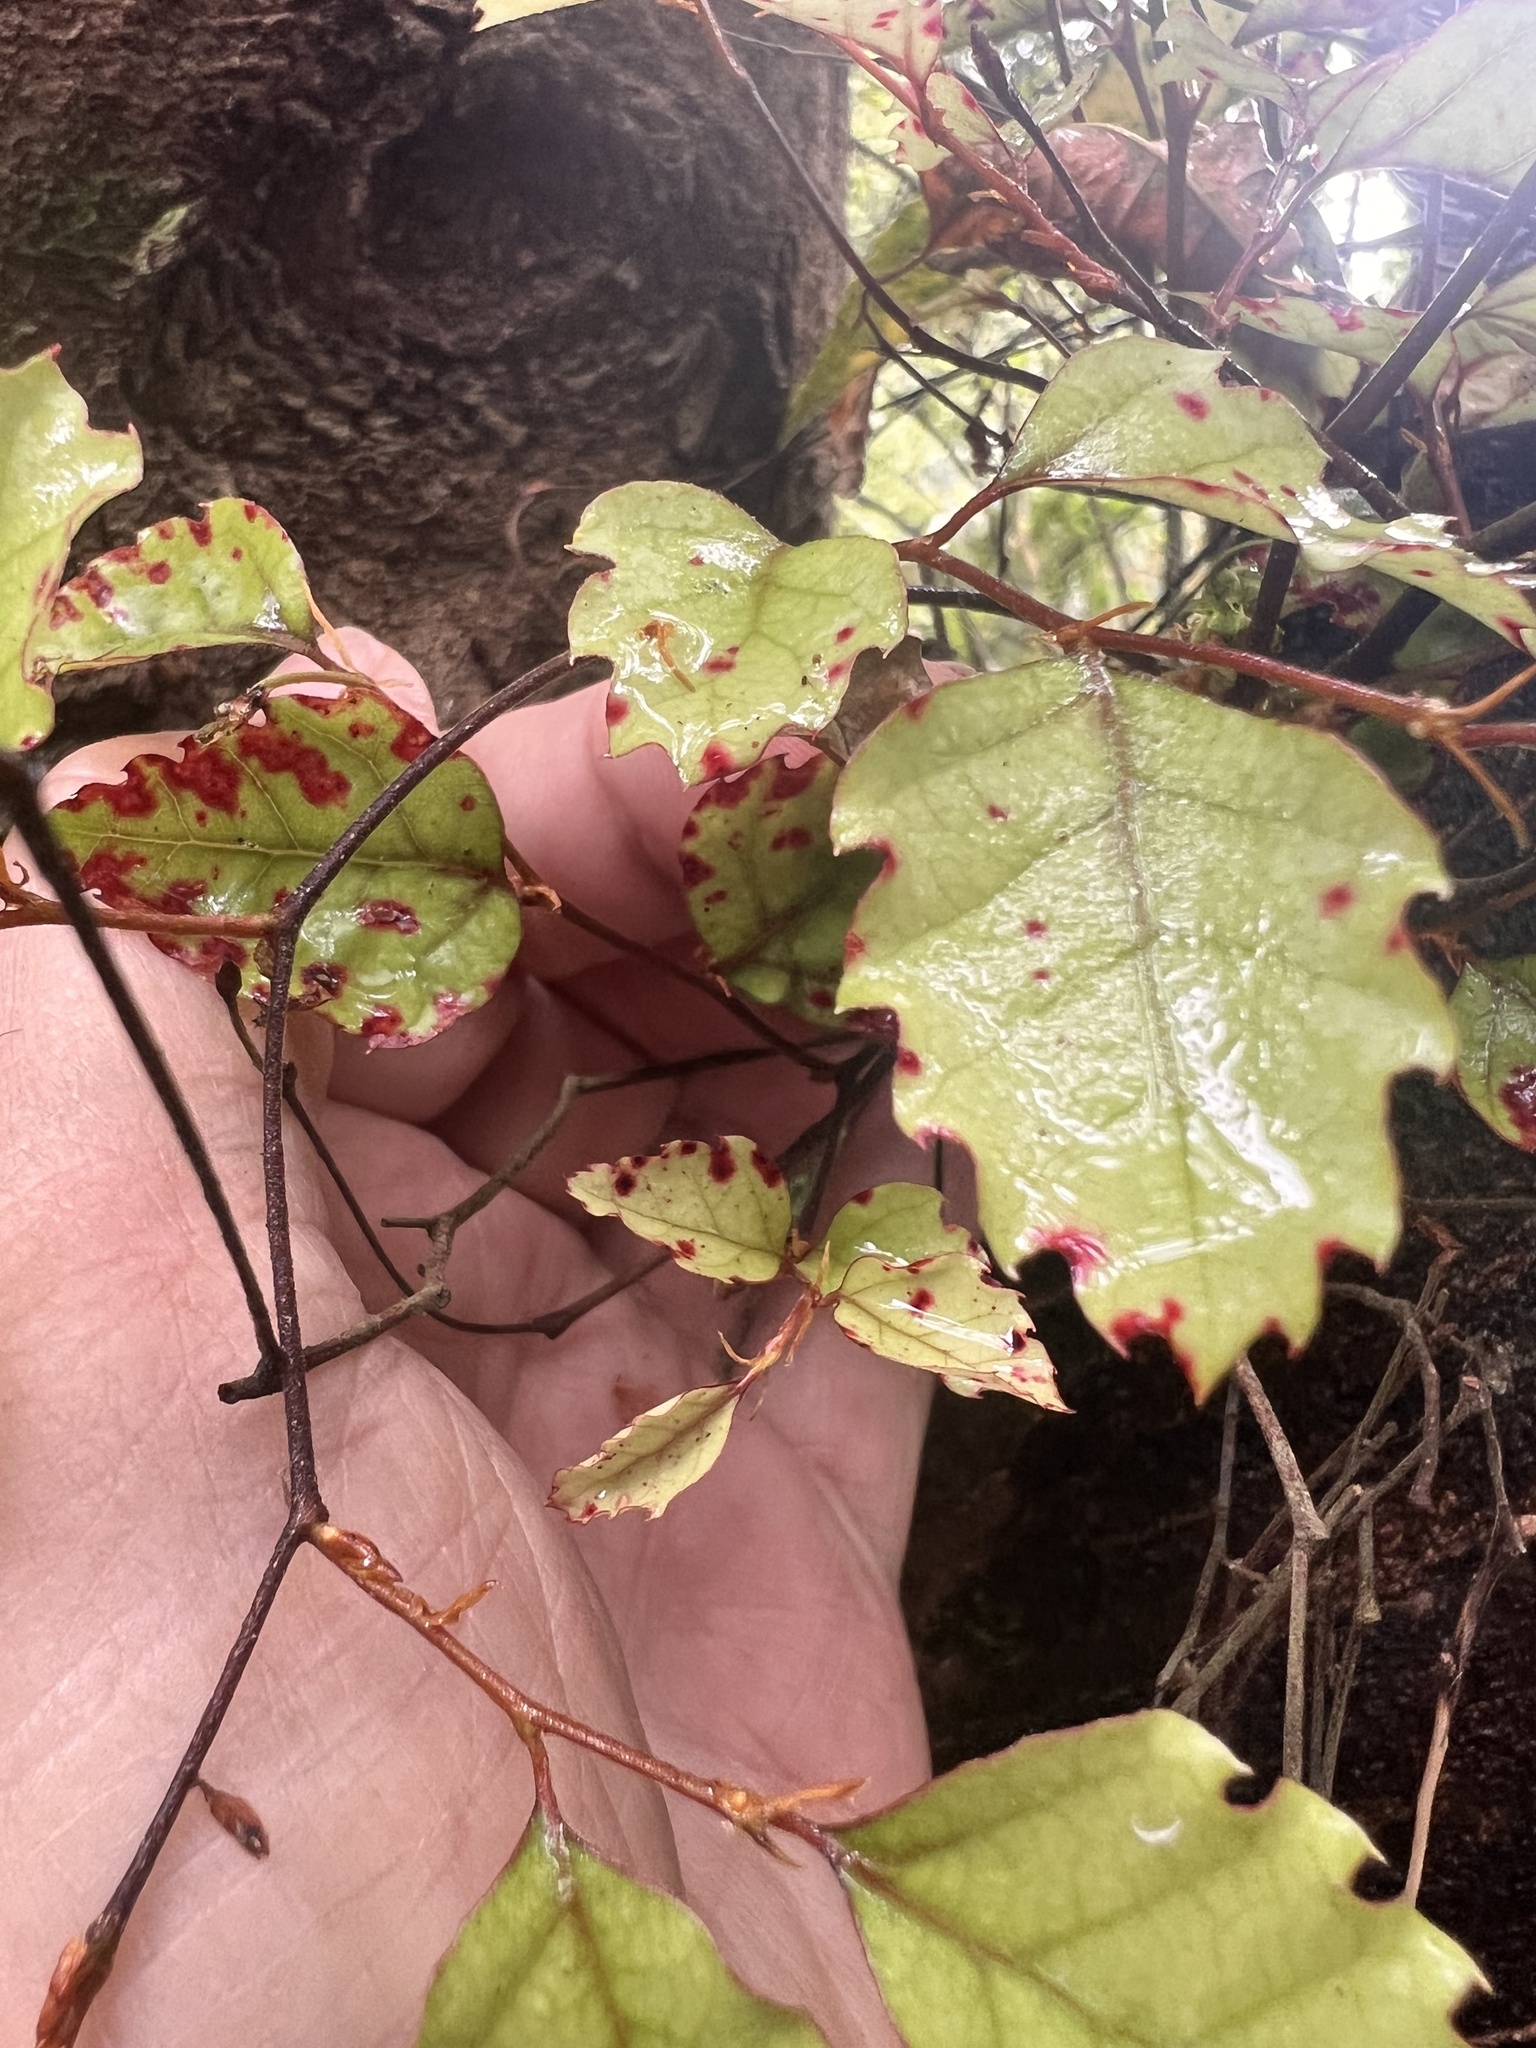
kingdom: Plantae
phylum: Tracheophyta
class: Magnoliopsida
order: Fagales
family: Nothofagaceae
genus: Nothofagus
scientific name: Nothofagus fusca
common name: Red beech
